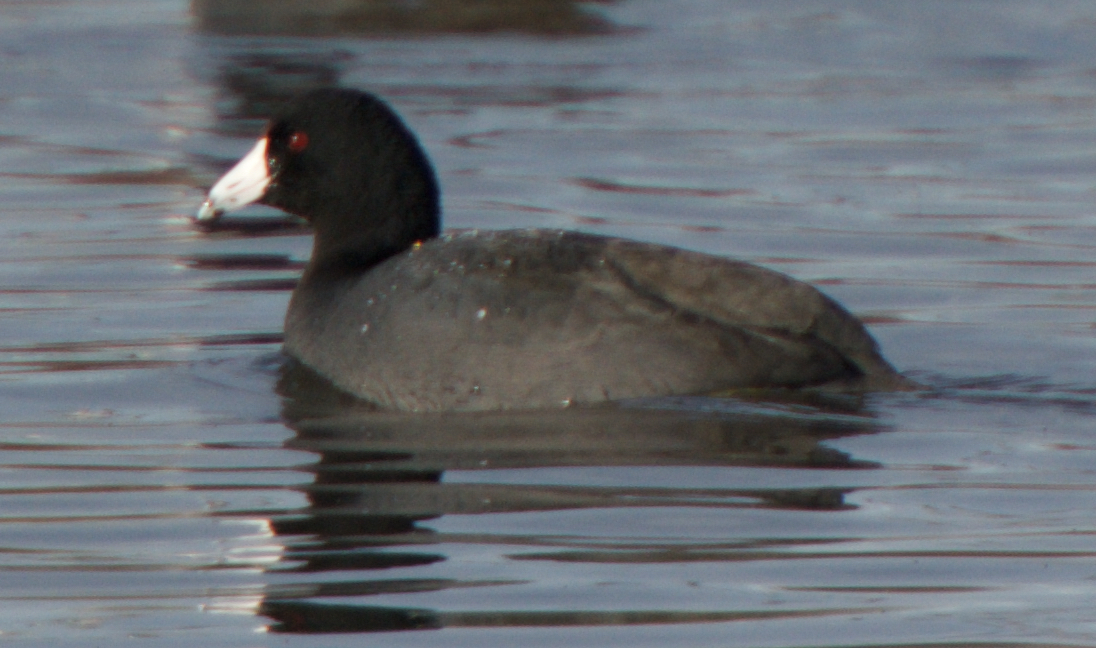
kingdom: Animalia
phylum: Chordata
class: Aves
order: Gruiformes
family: Rallidae
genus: Fulica
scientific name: Fulica americana
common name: American coot
